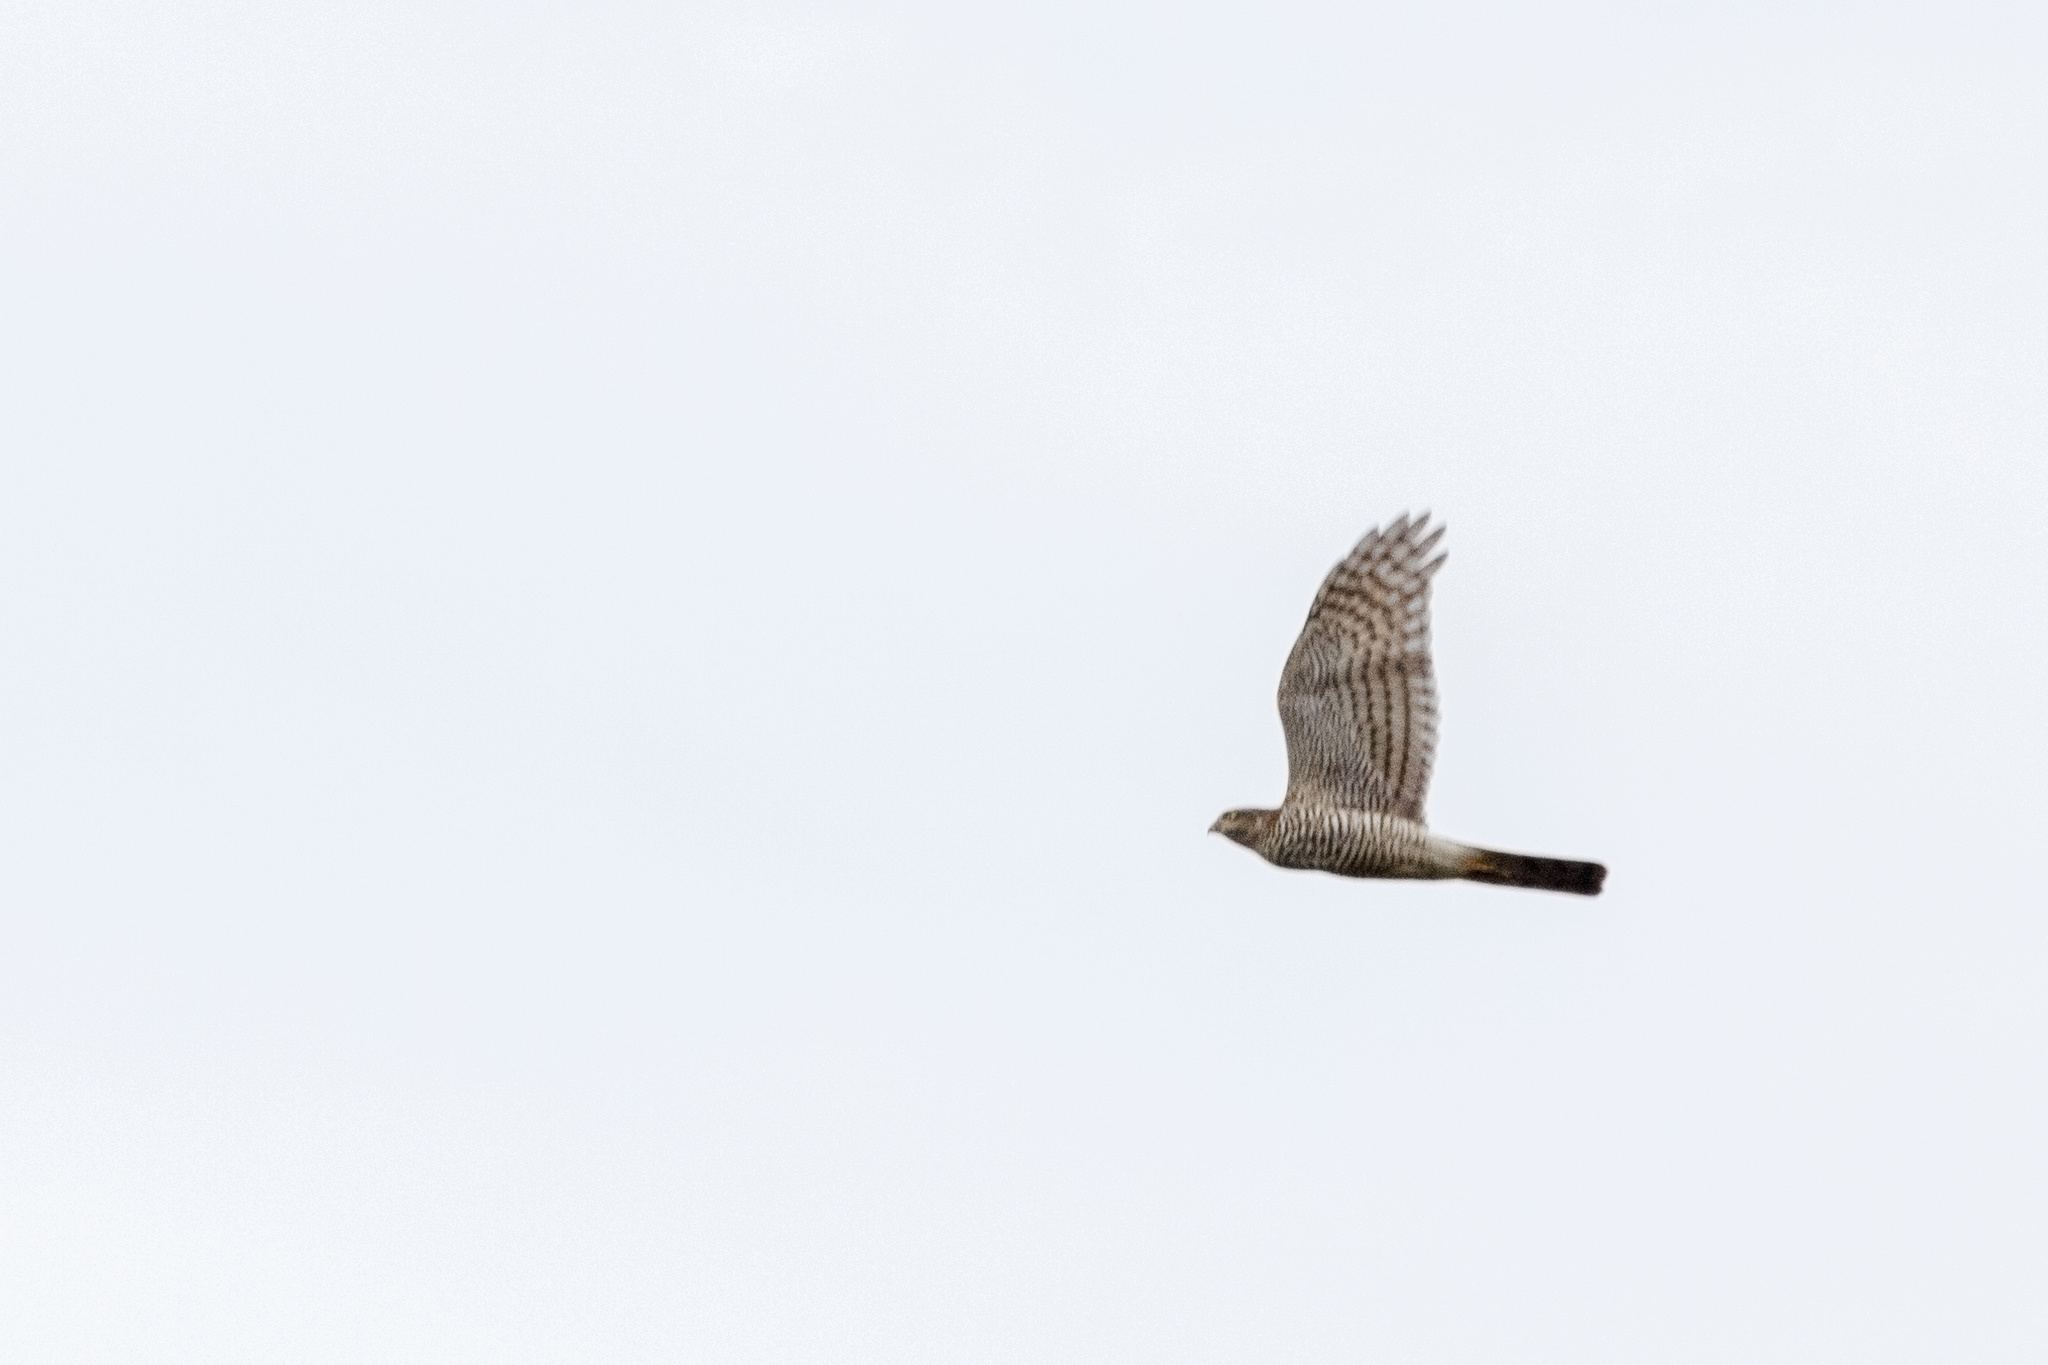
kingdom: Animalia
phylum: Chordata
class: Aves
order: Accipitriformes
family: Accipitridae
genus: Accipiter
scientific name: Accipiter nisus
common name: Eurasian sparrowhawk
